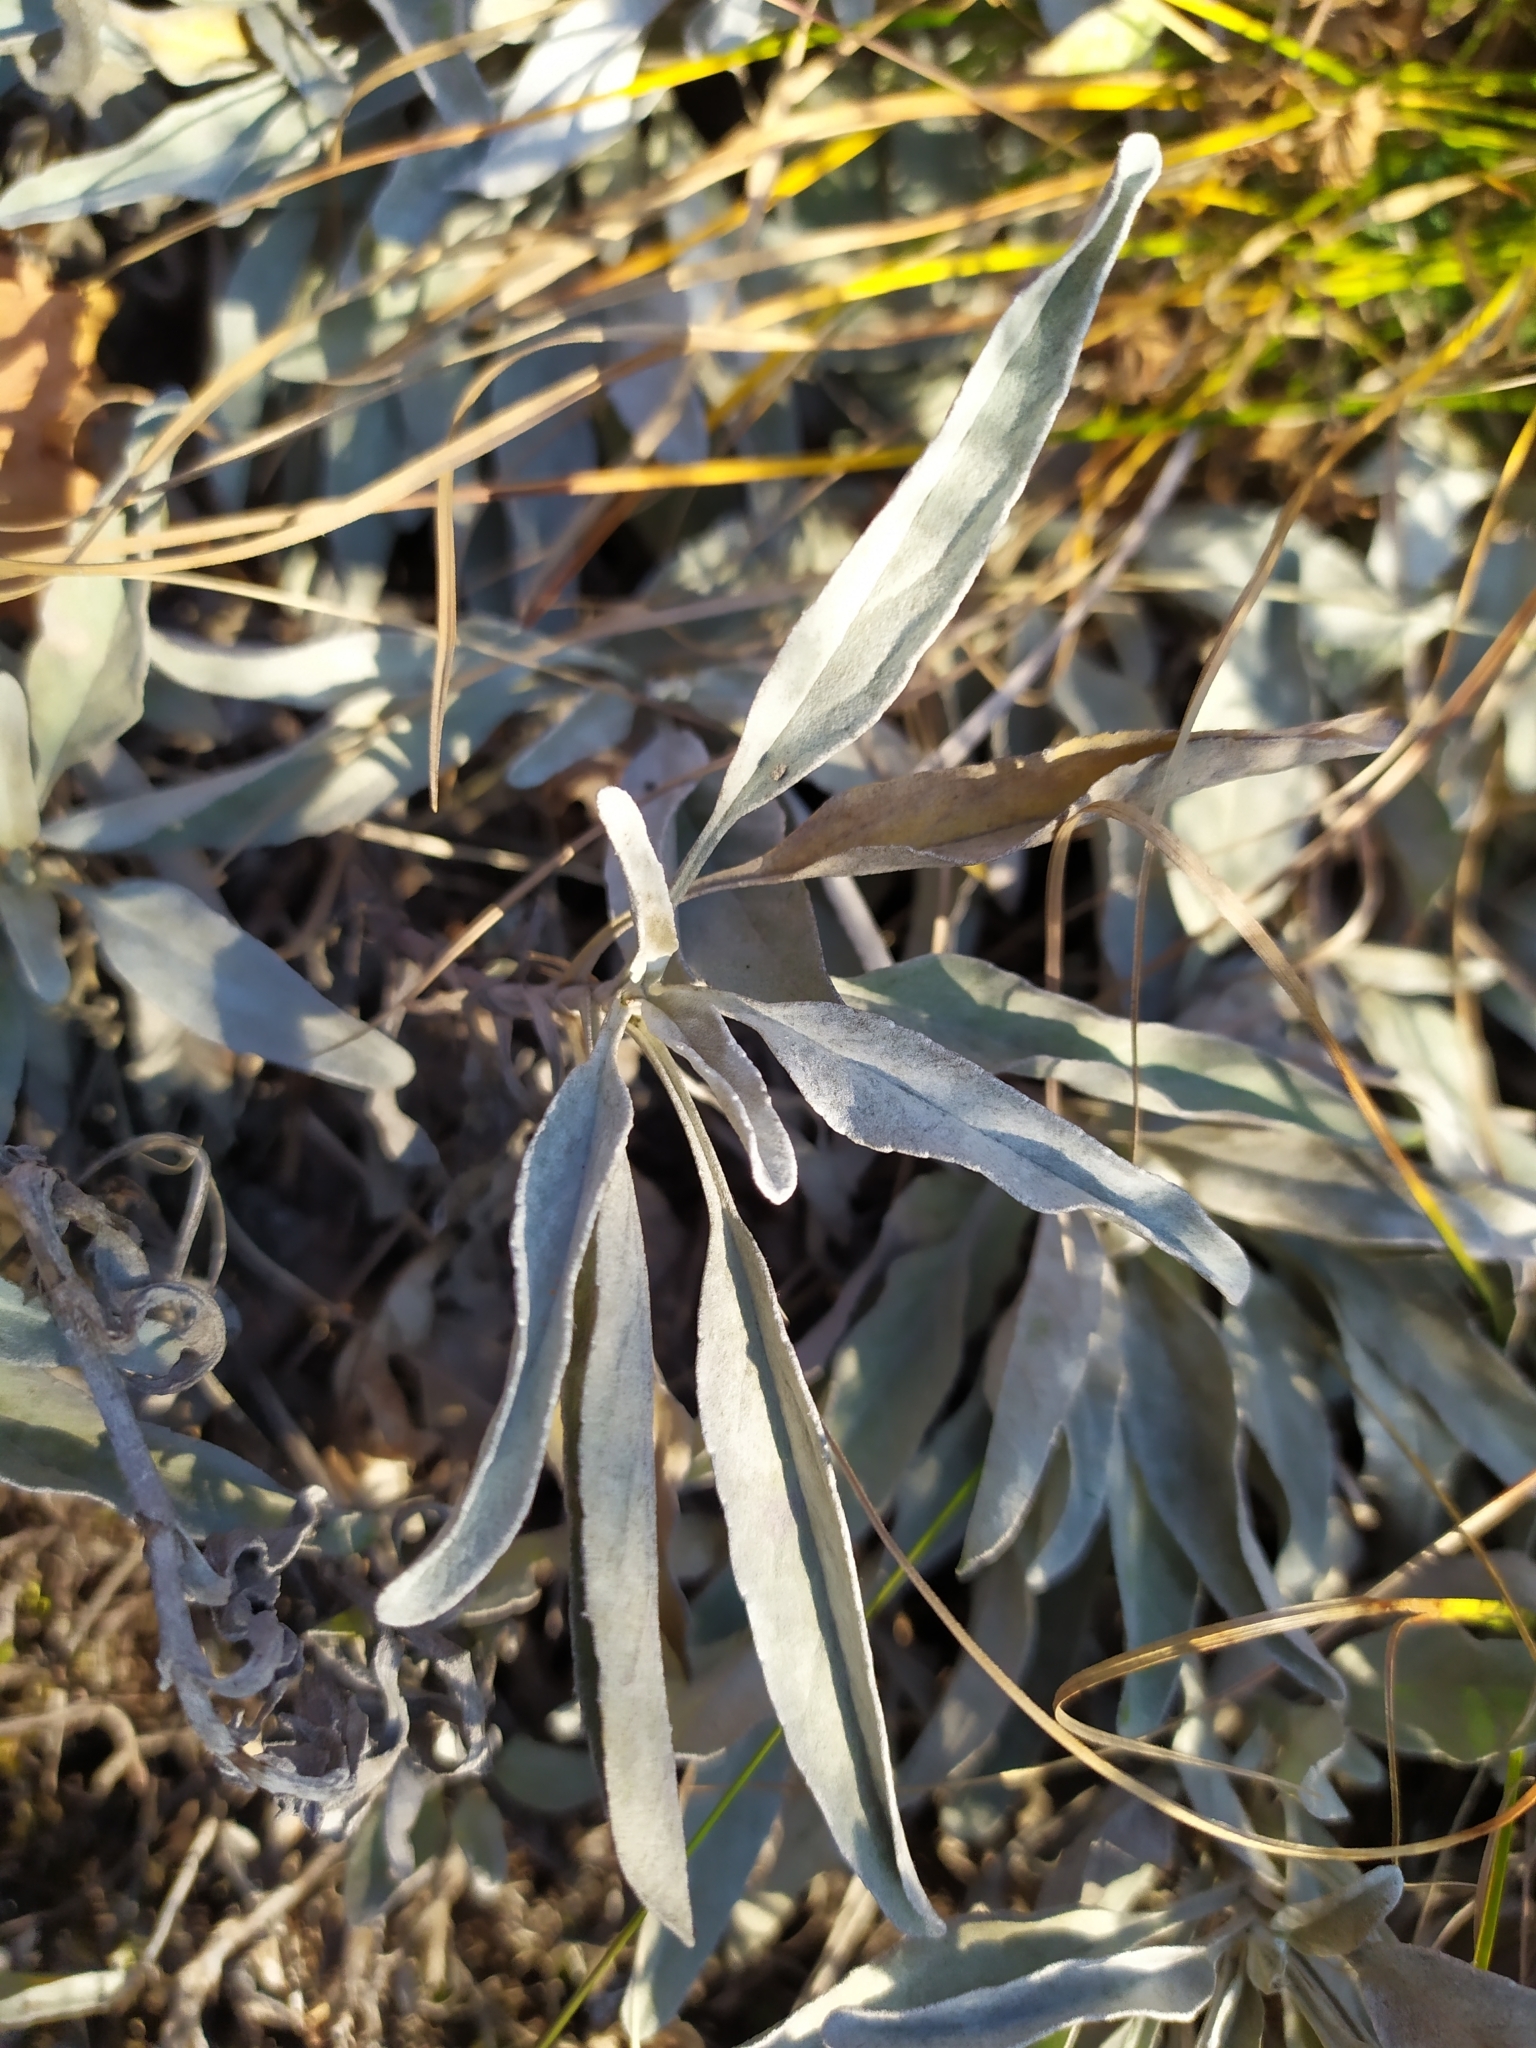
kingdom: Plantae
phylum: Tracheophyta
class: Magnoliopsida
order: Lamiales
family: Plantaginaceae
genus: Veronica
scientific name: Veronica incana
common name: Silver speedwell
